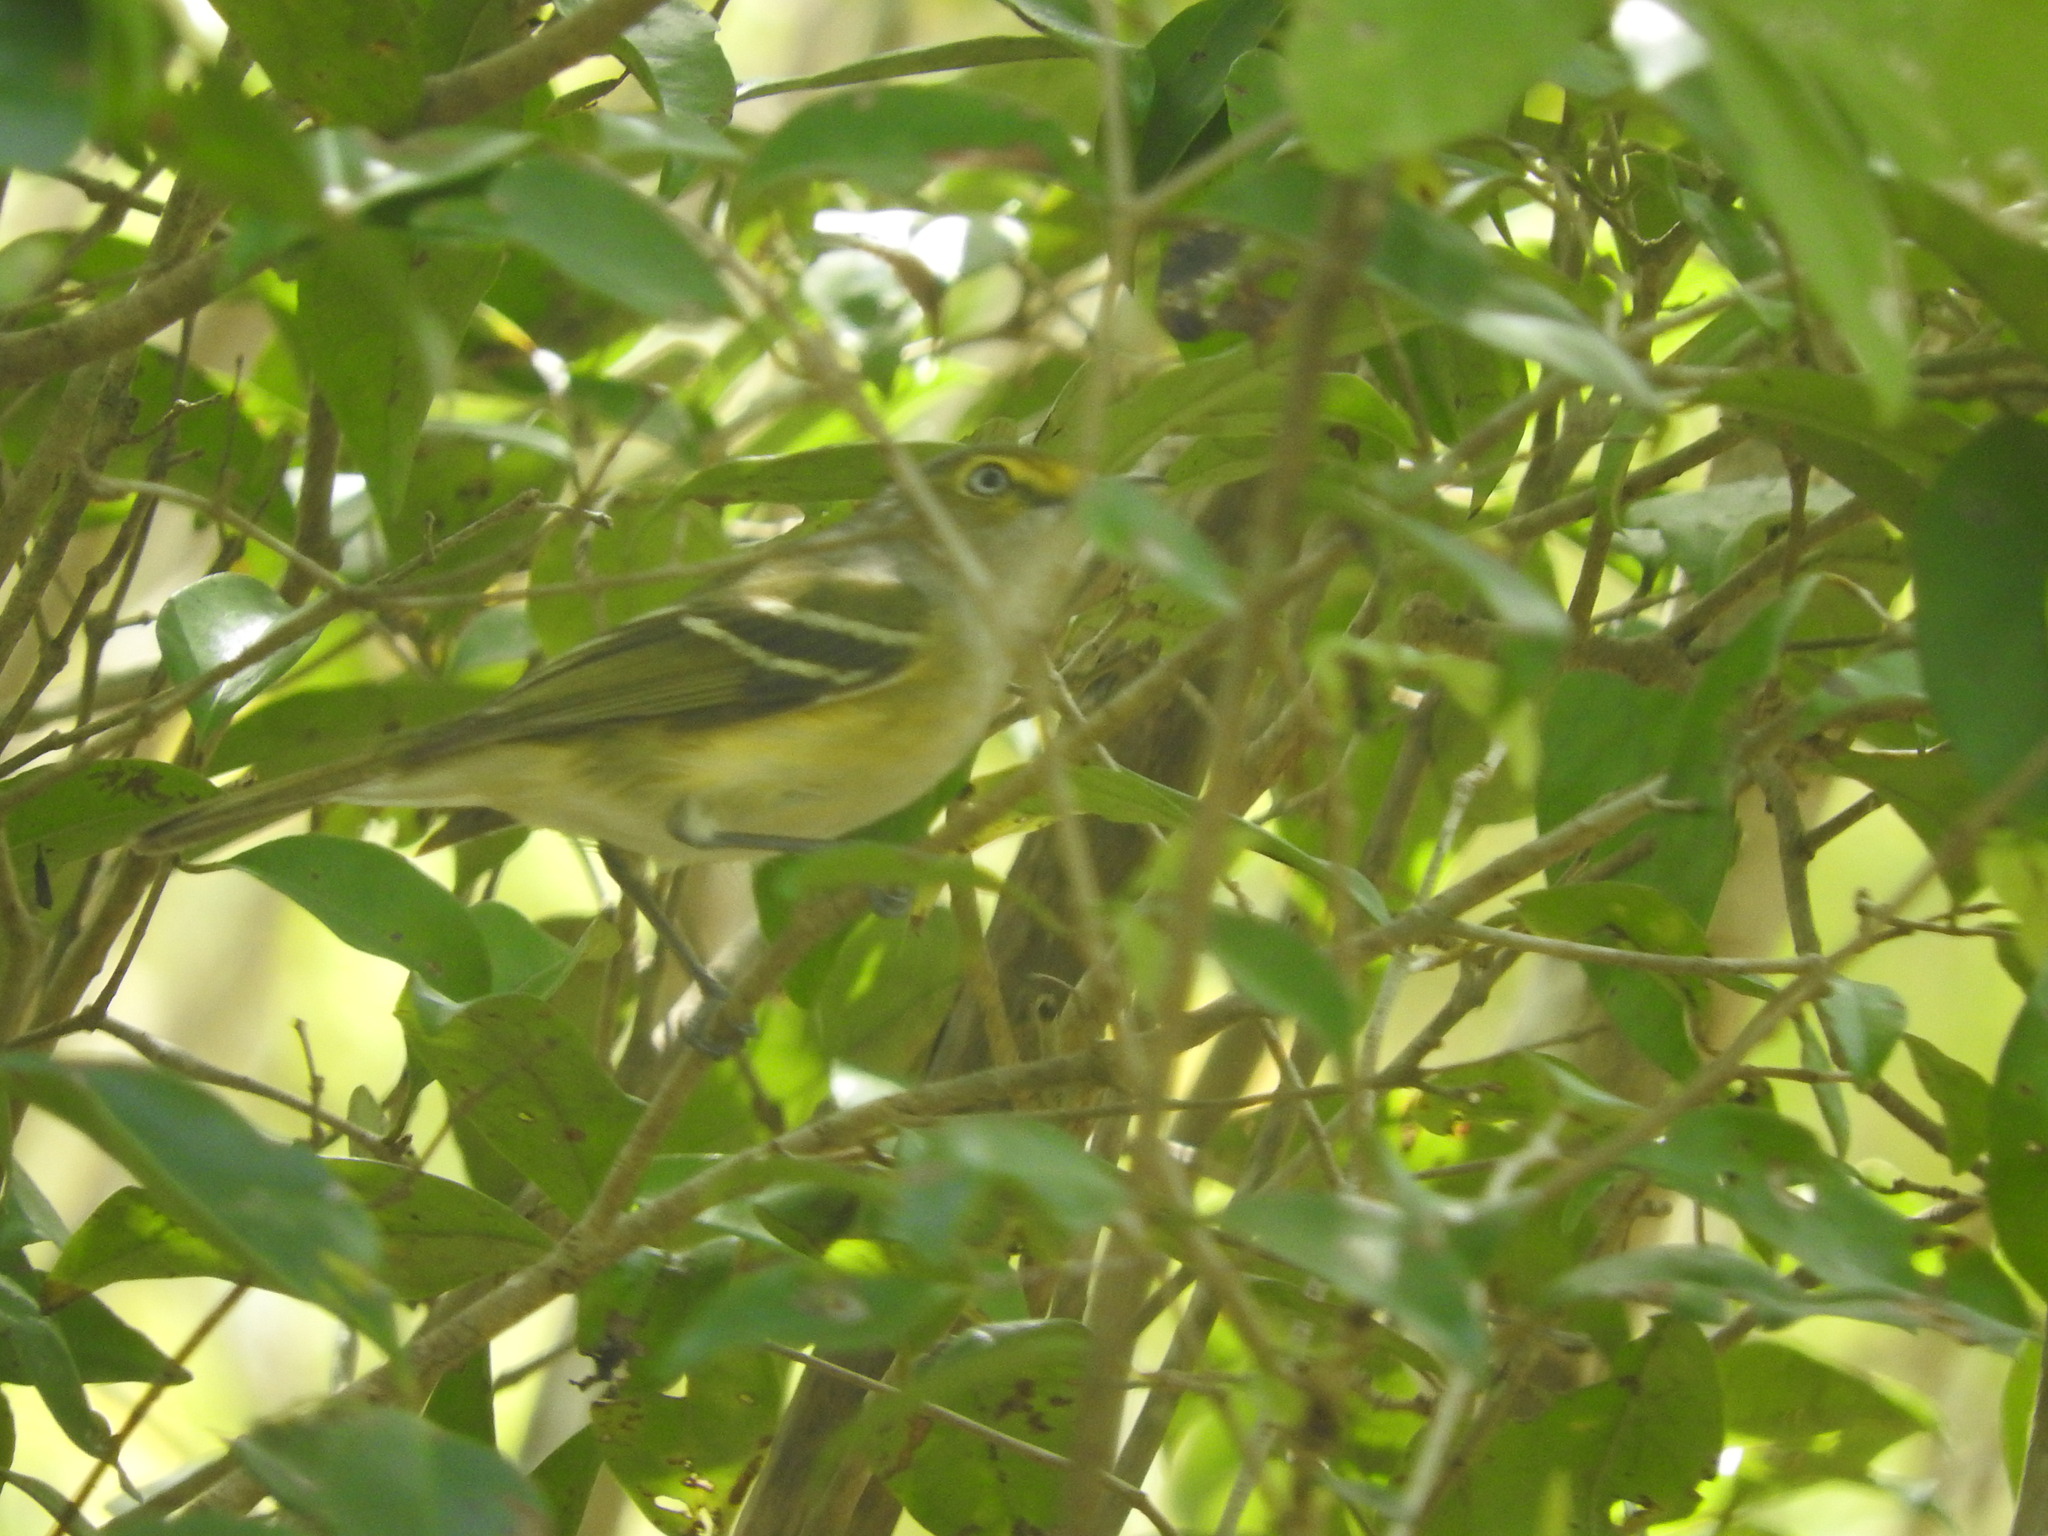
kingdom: Animalia
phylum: Chordata
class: Aves
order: Passeriformes
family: Vireonidae
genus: Vireo
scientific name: Vireo griseus
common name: White-eyed vireo
